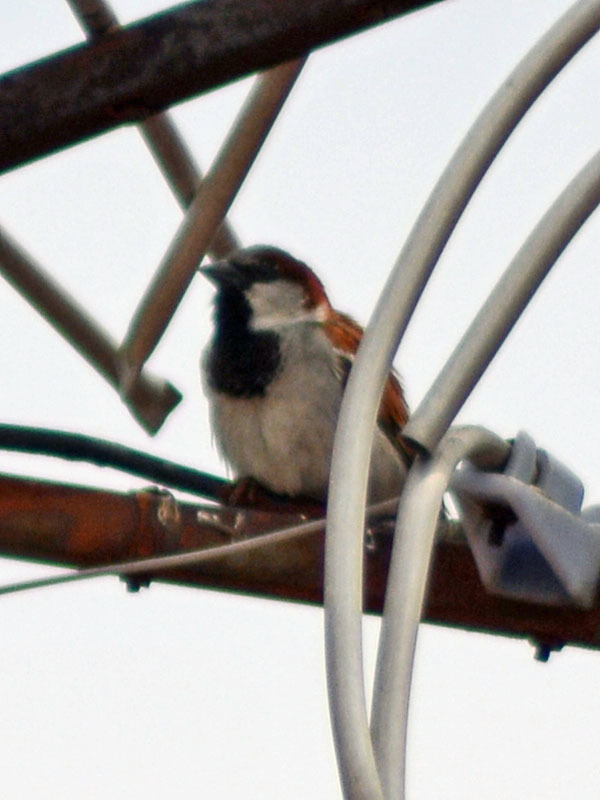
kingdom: Animalia
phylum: Chordata
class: Aves
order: Passeriformes
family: Passeridae
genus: Passer
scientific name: Passer domesticus
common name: House sparrow
